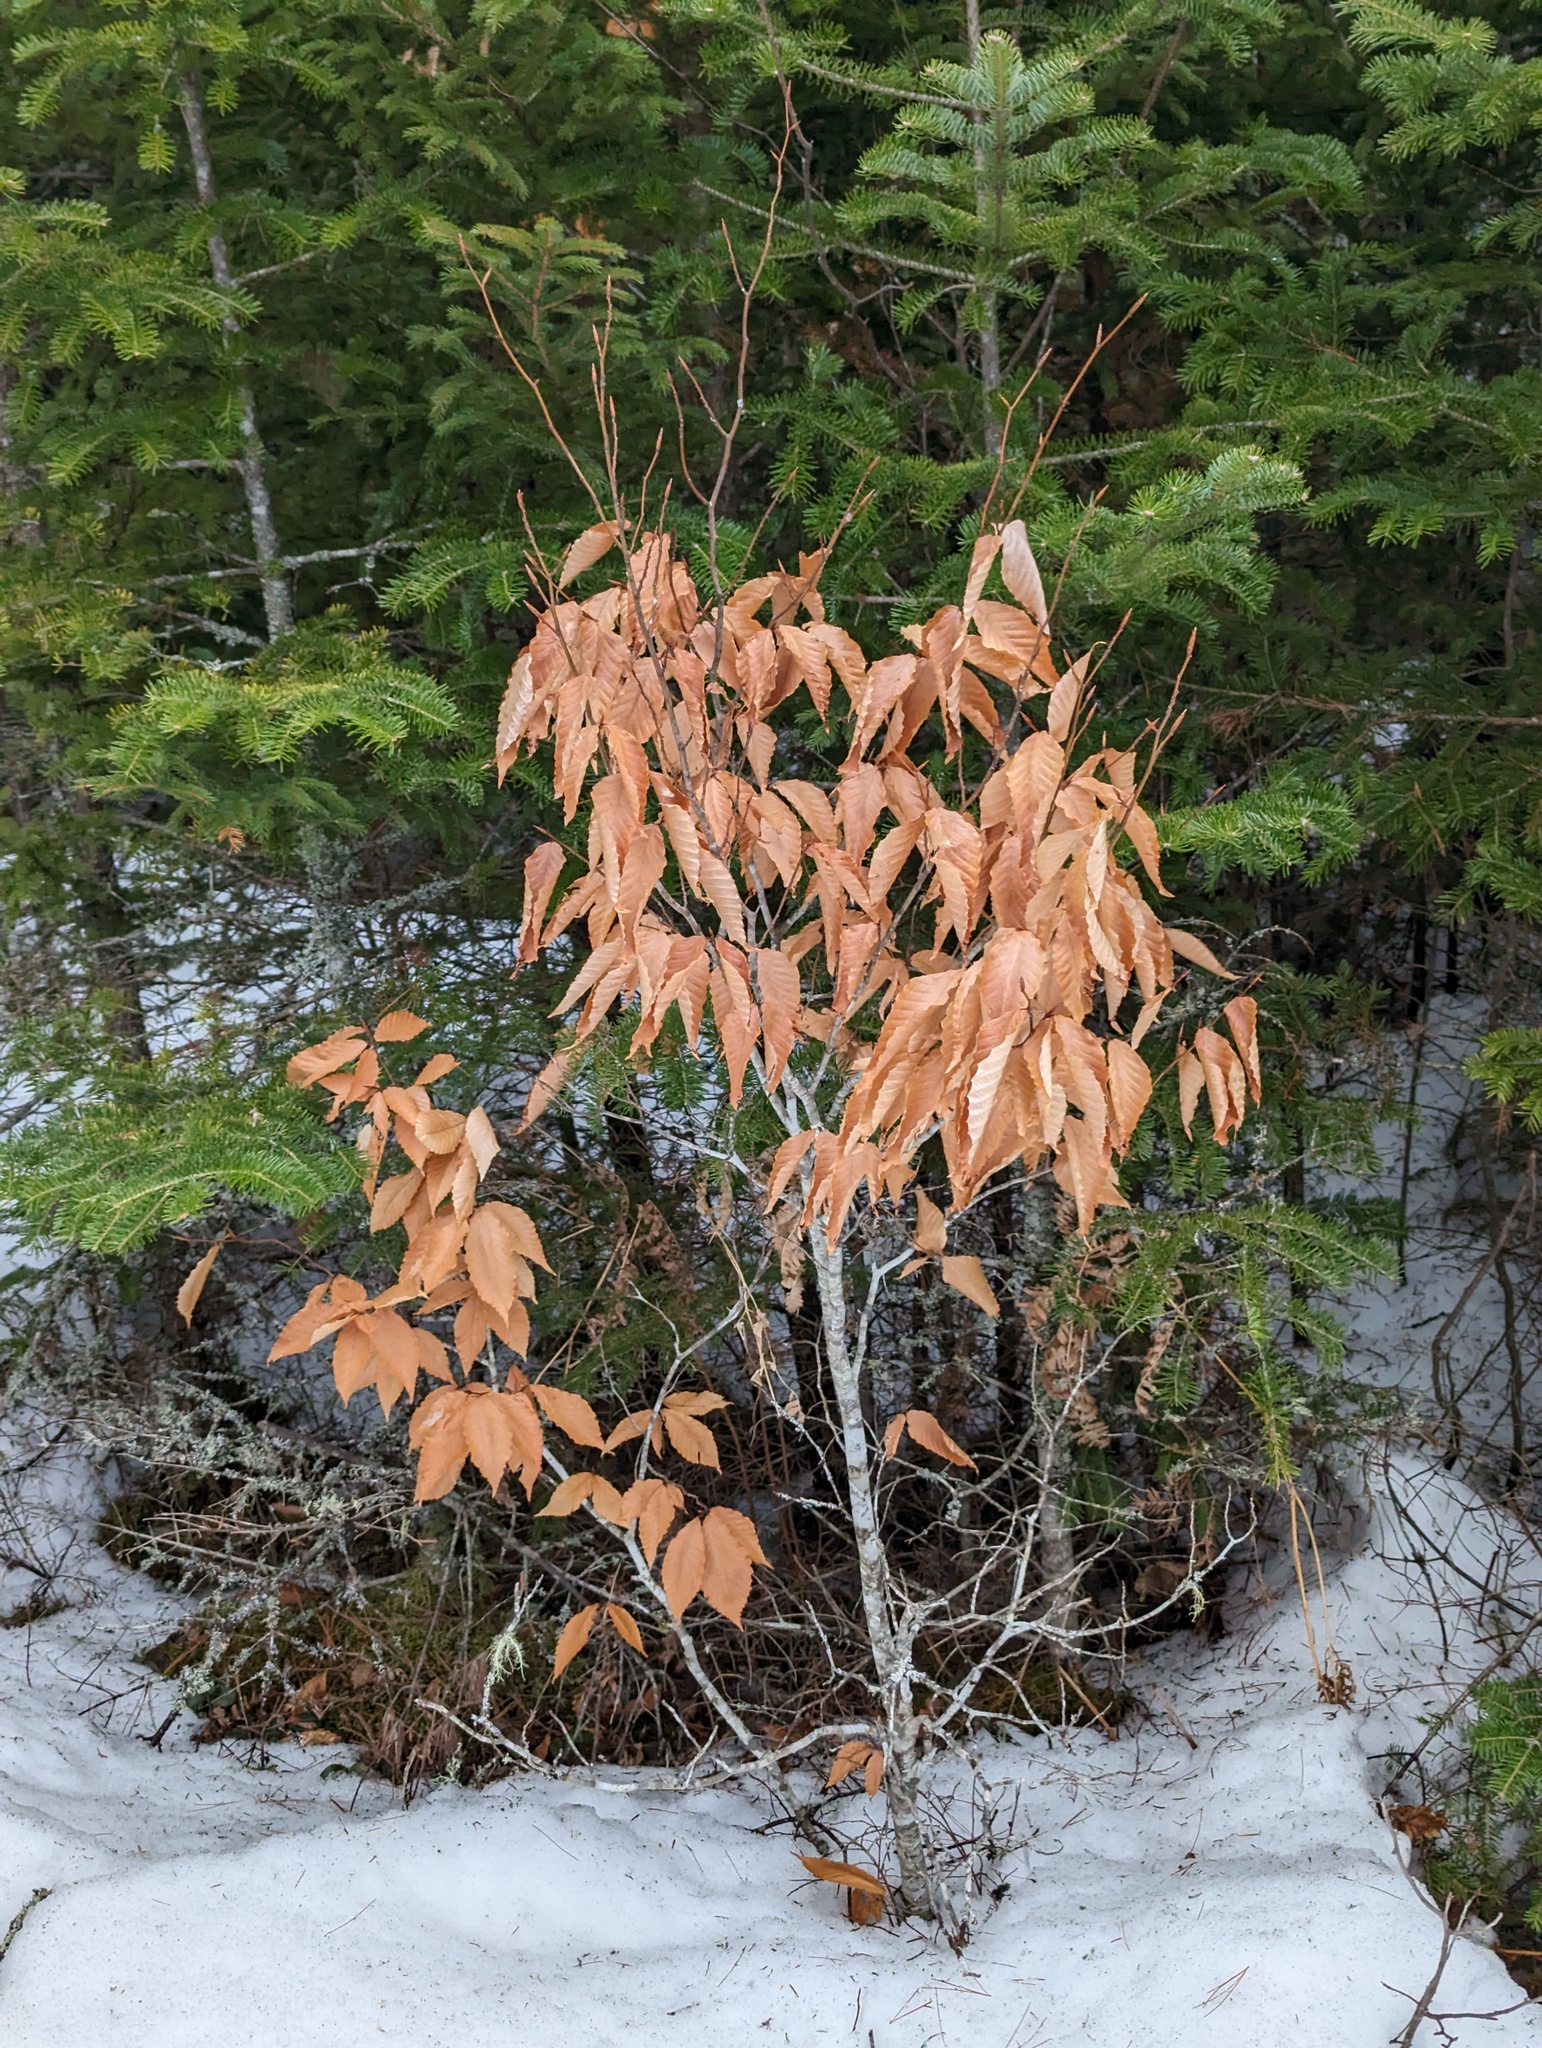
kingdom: Plantae
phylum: Tracheophyta
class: Magnoliopsida
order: Fagales
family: Fagaceae
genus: Fagus
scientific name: Fagus grandifolia
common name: American beech
